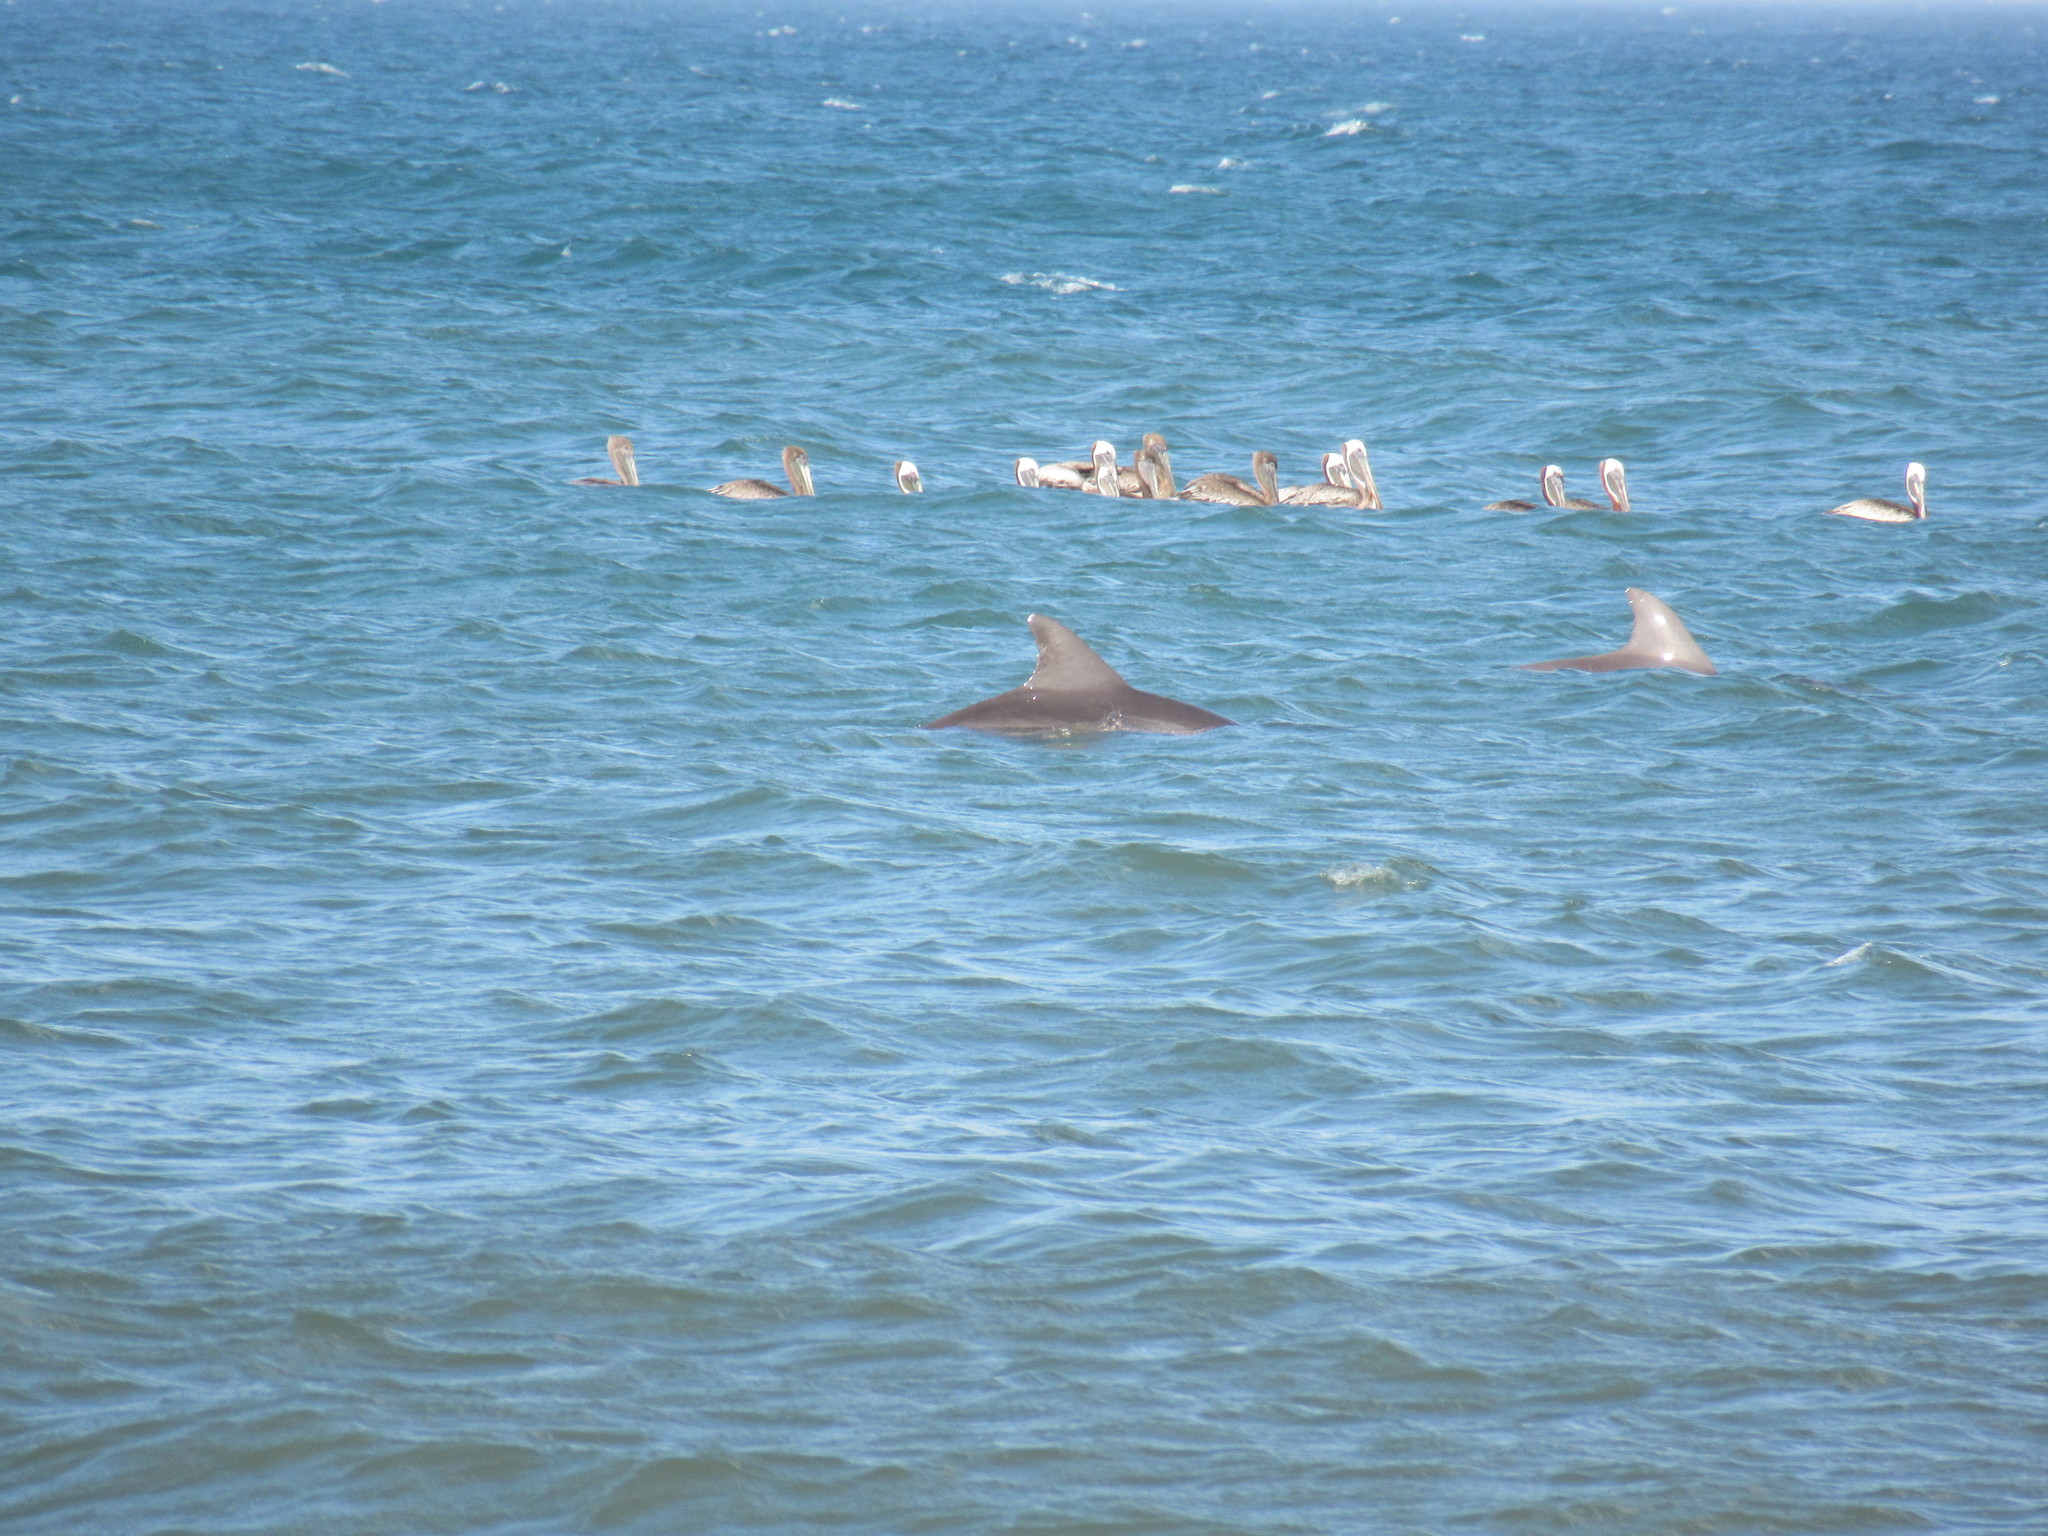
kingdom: Animalia
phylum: Chordata
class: Mammalia
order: Cetacea
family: Delphinidae
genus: Tursiops
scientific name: Tursiops truncatus
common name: Bottlenose dolphin
